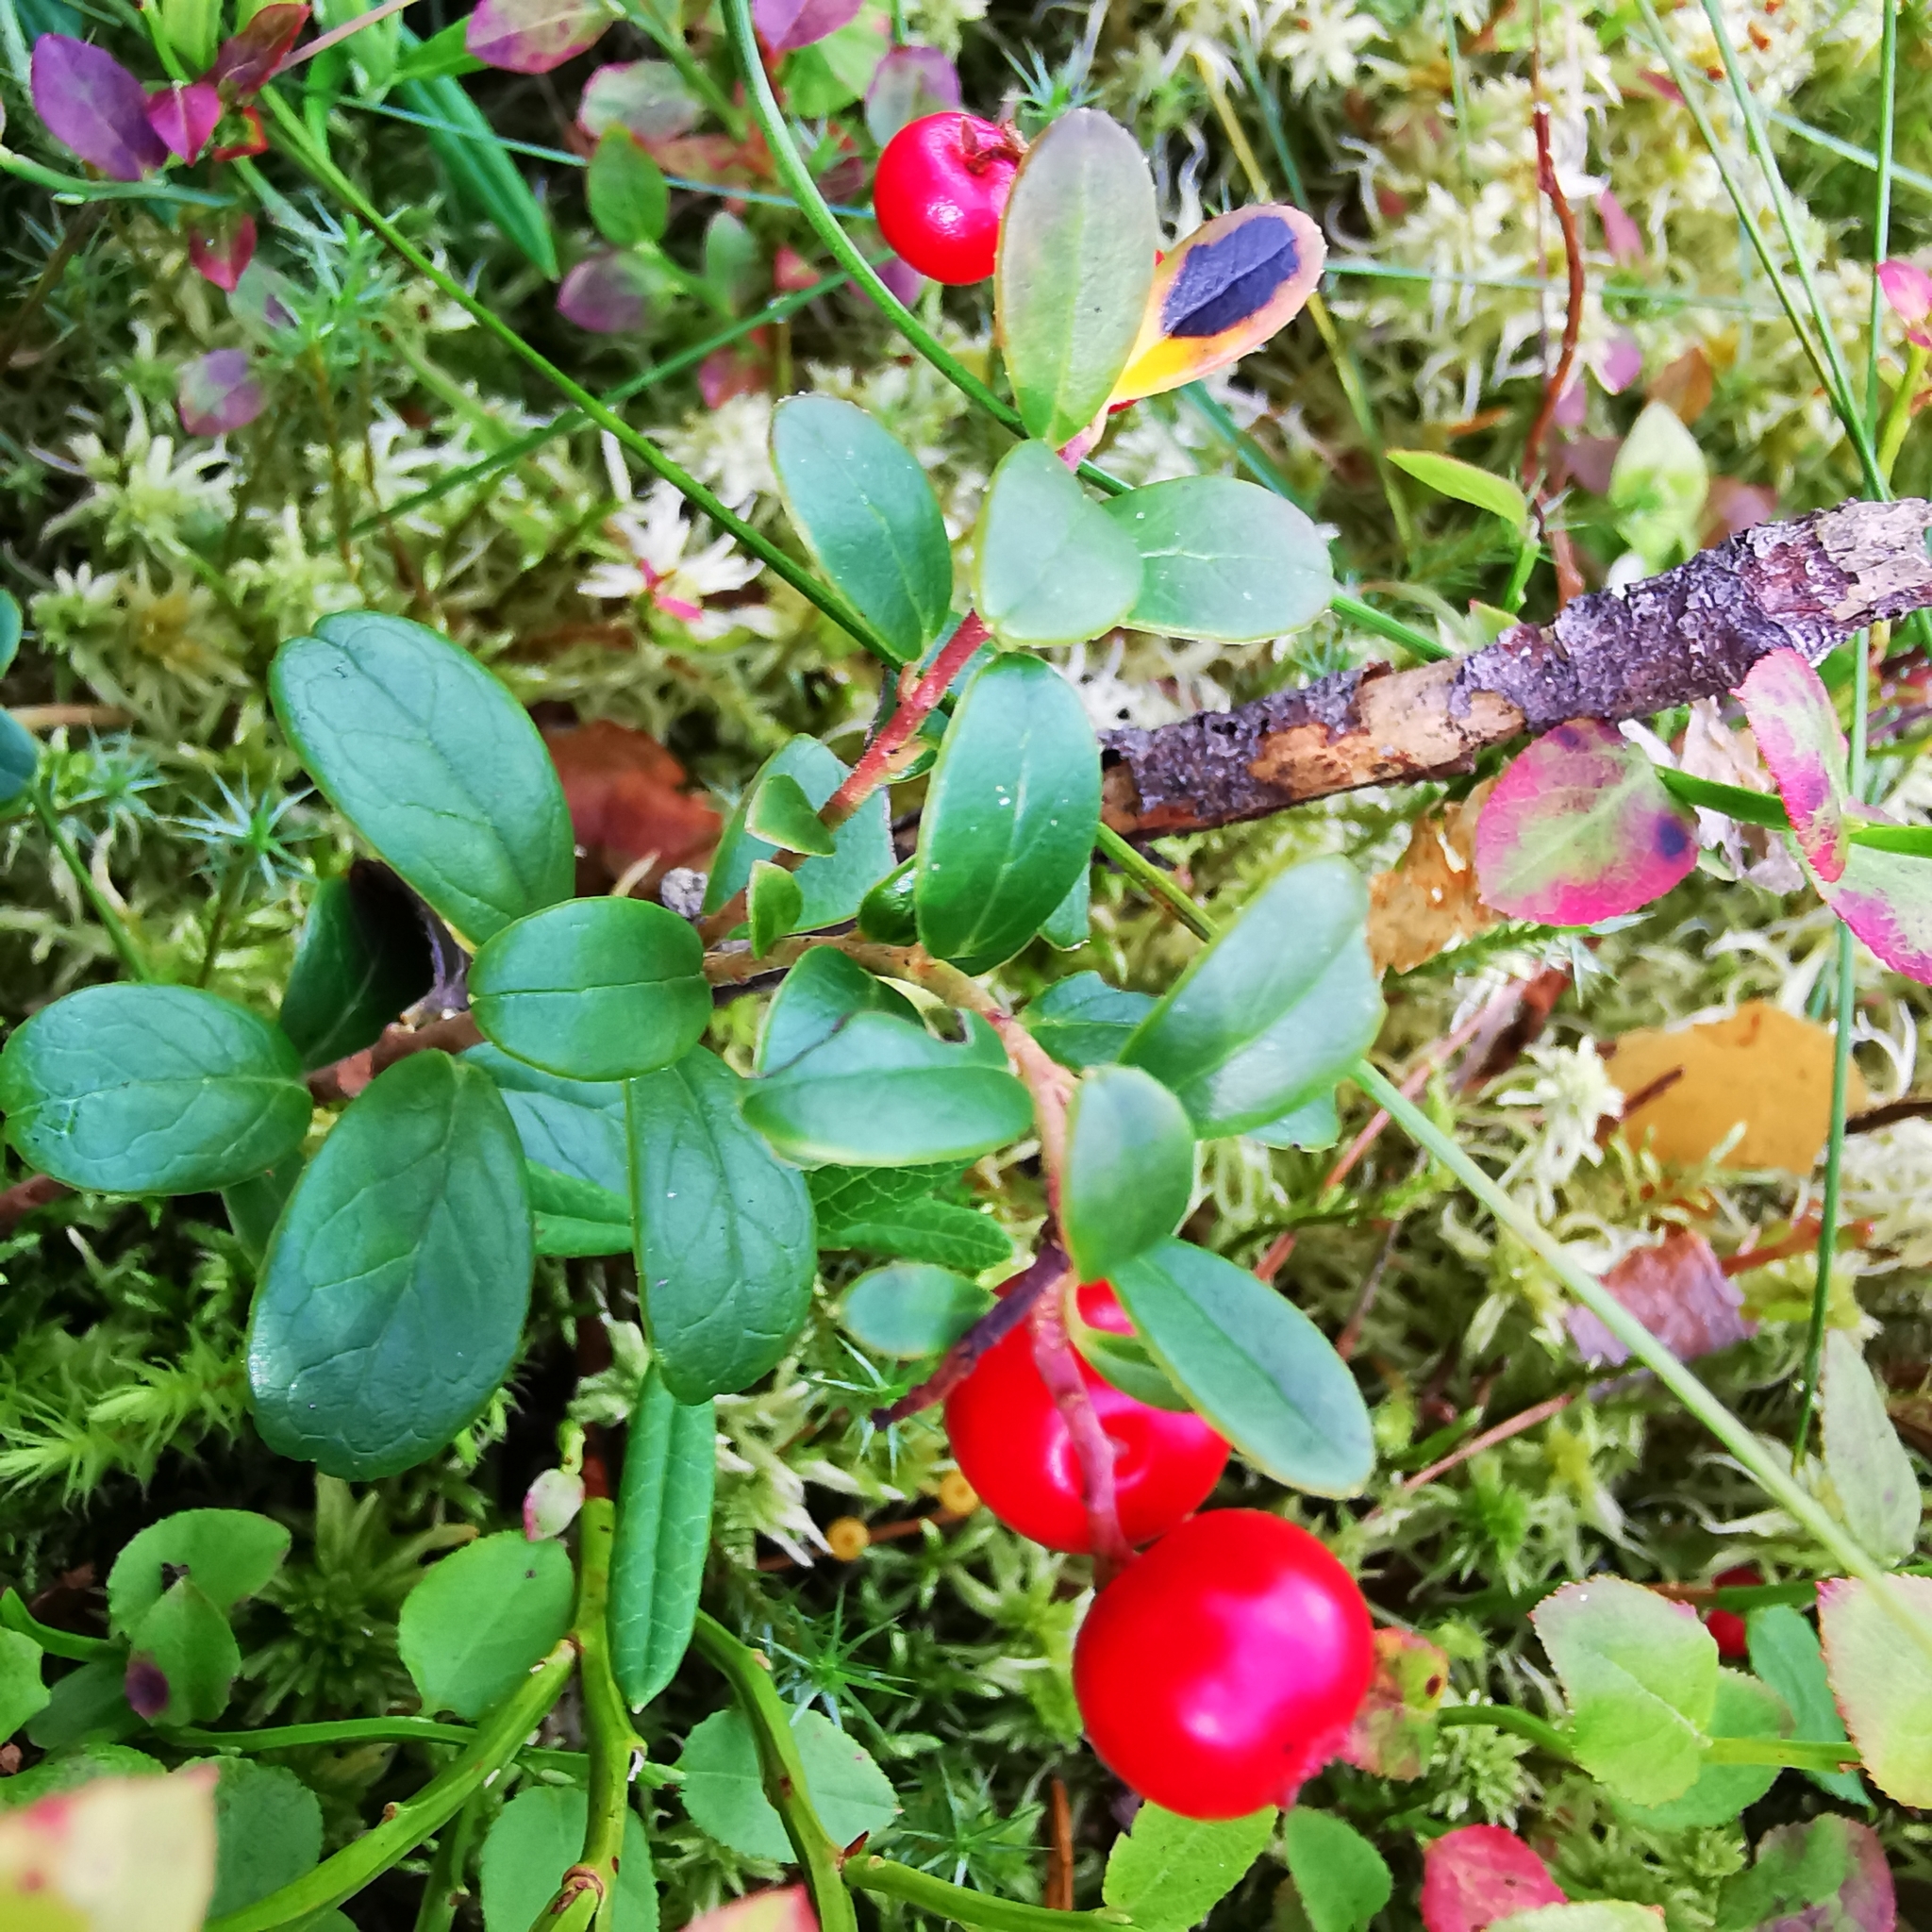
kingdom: Plantae
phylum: Tracheophyta
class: Magnoliopsida
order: Ericales
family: Ericaceae
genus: Vaccinium
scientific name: Vaccinium vitis-idaea
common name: Cowberry
